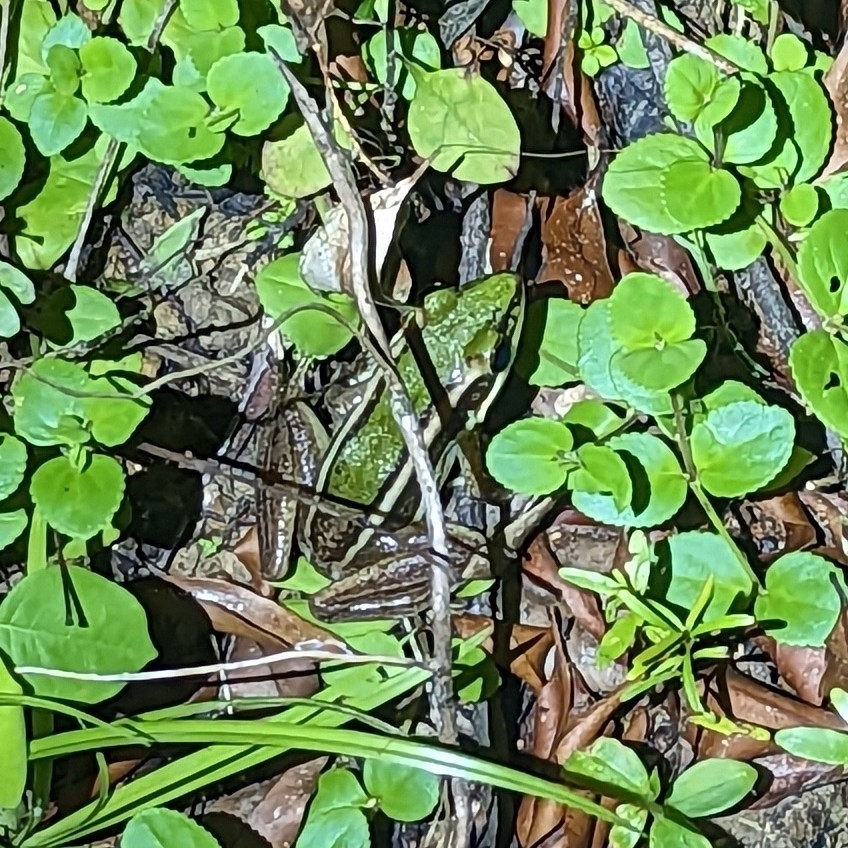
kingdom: Animalia
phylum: Chordata
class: Amphibia
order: Anura
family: Ranidae
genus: Hylarana
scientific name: Hylarana erythraea
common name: Common green frog/green paddy frog/leaf frog
